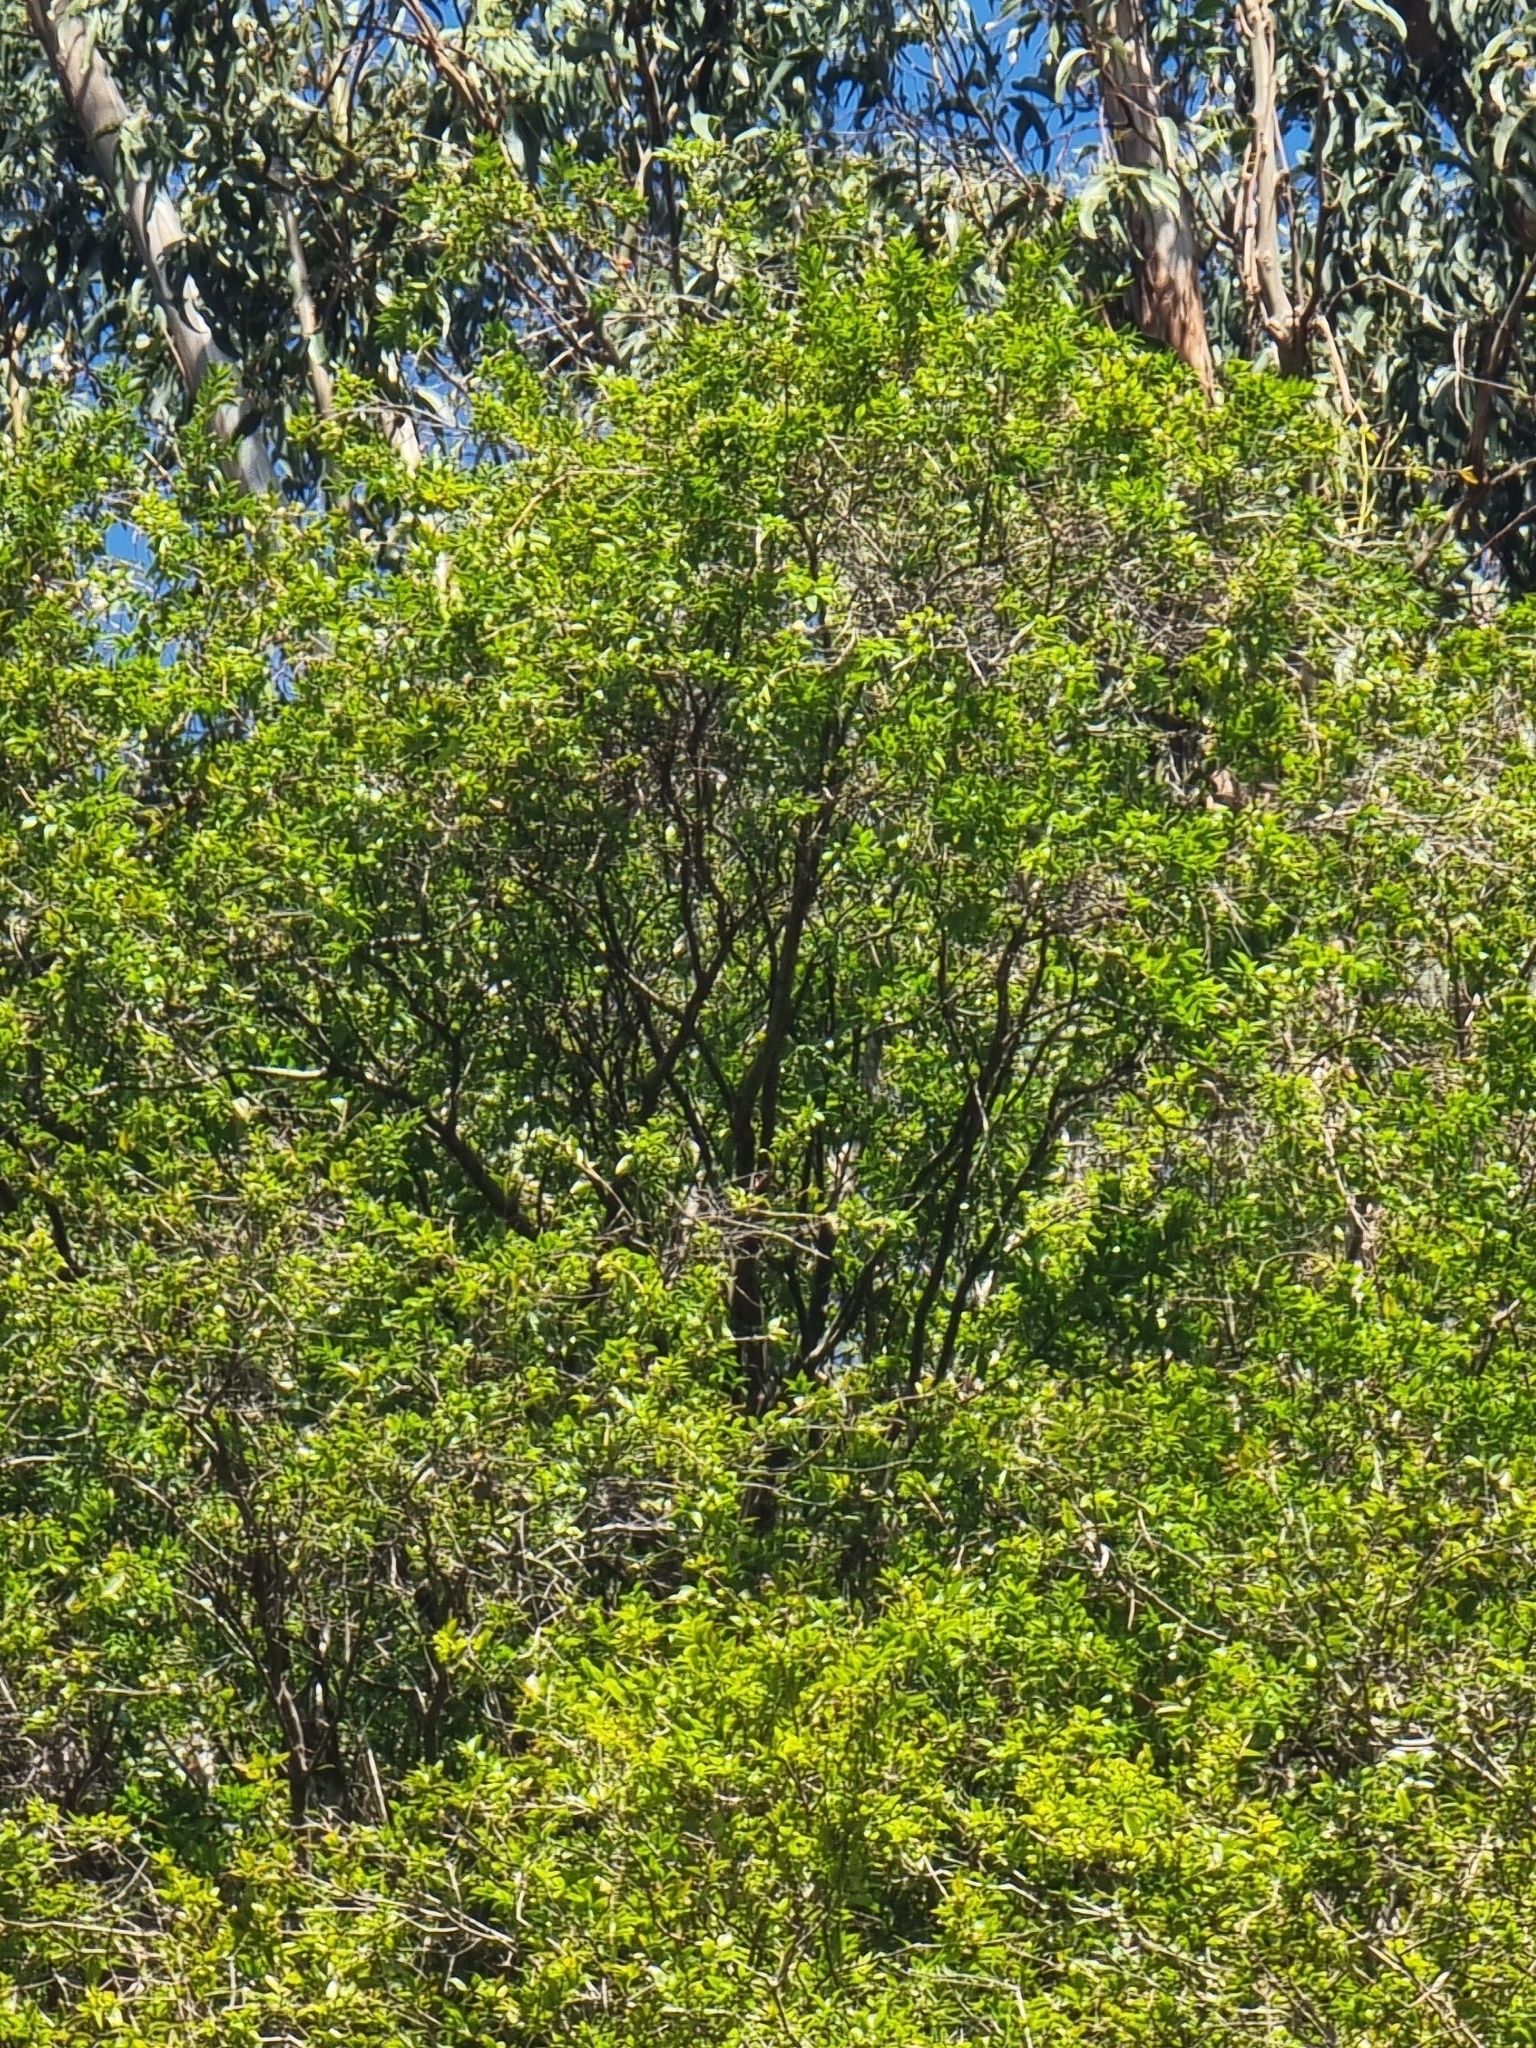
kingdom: Plantae
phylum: Tracheophyta
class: Magnoliopsida
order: Myrtales
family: Myrtaceae
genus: Myrtus
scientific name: Myrtus communis
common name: Myrtle
